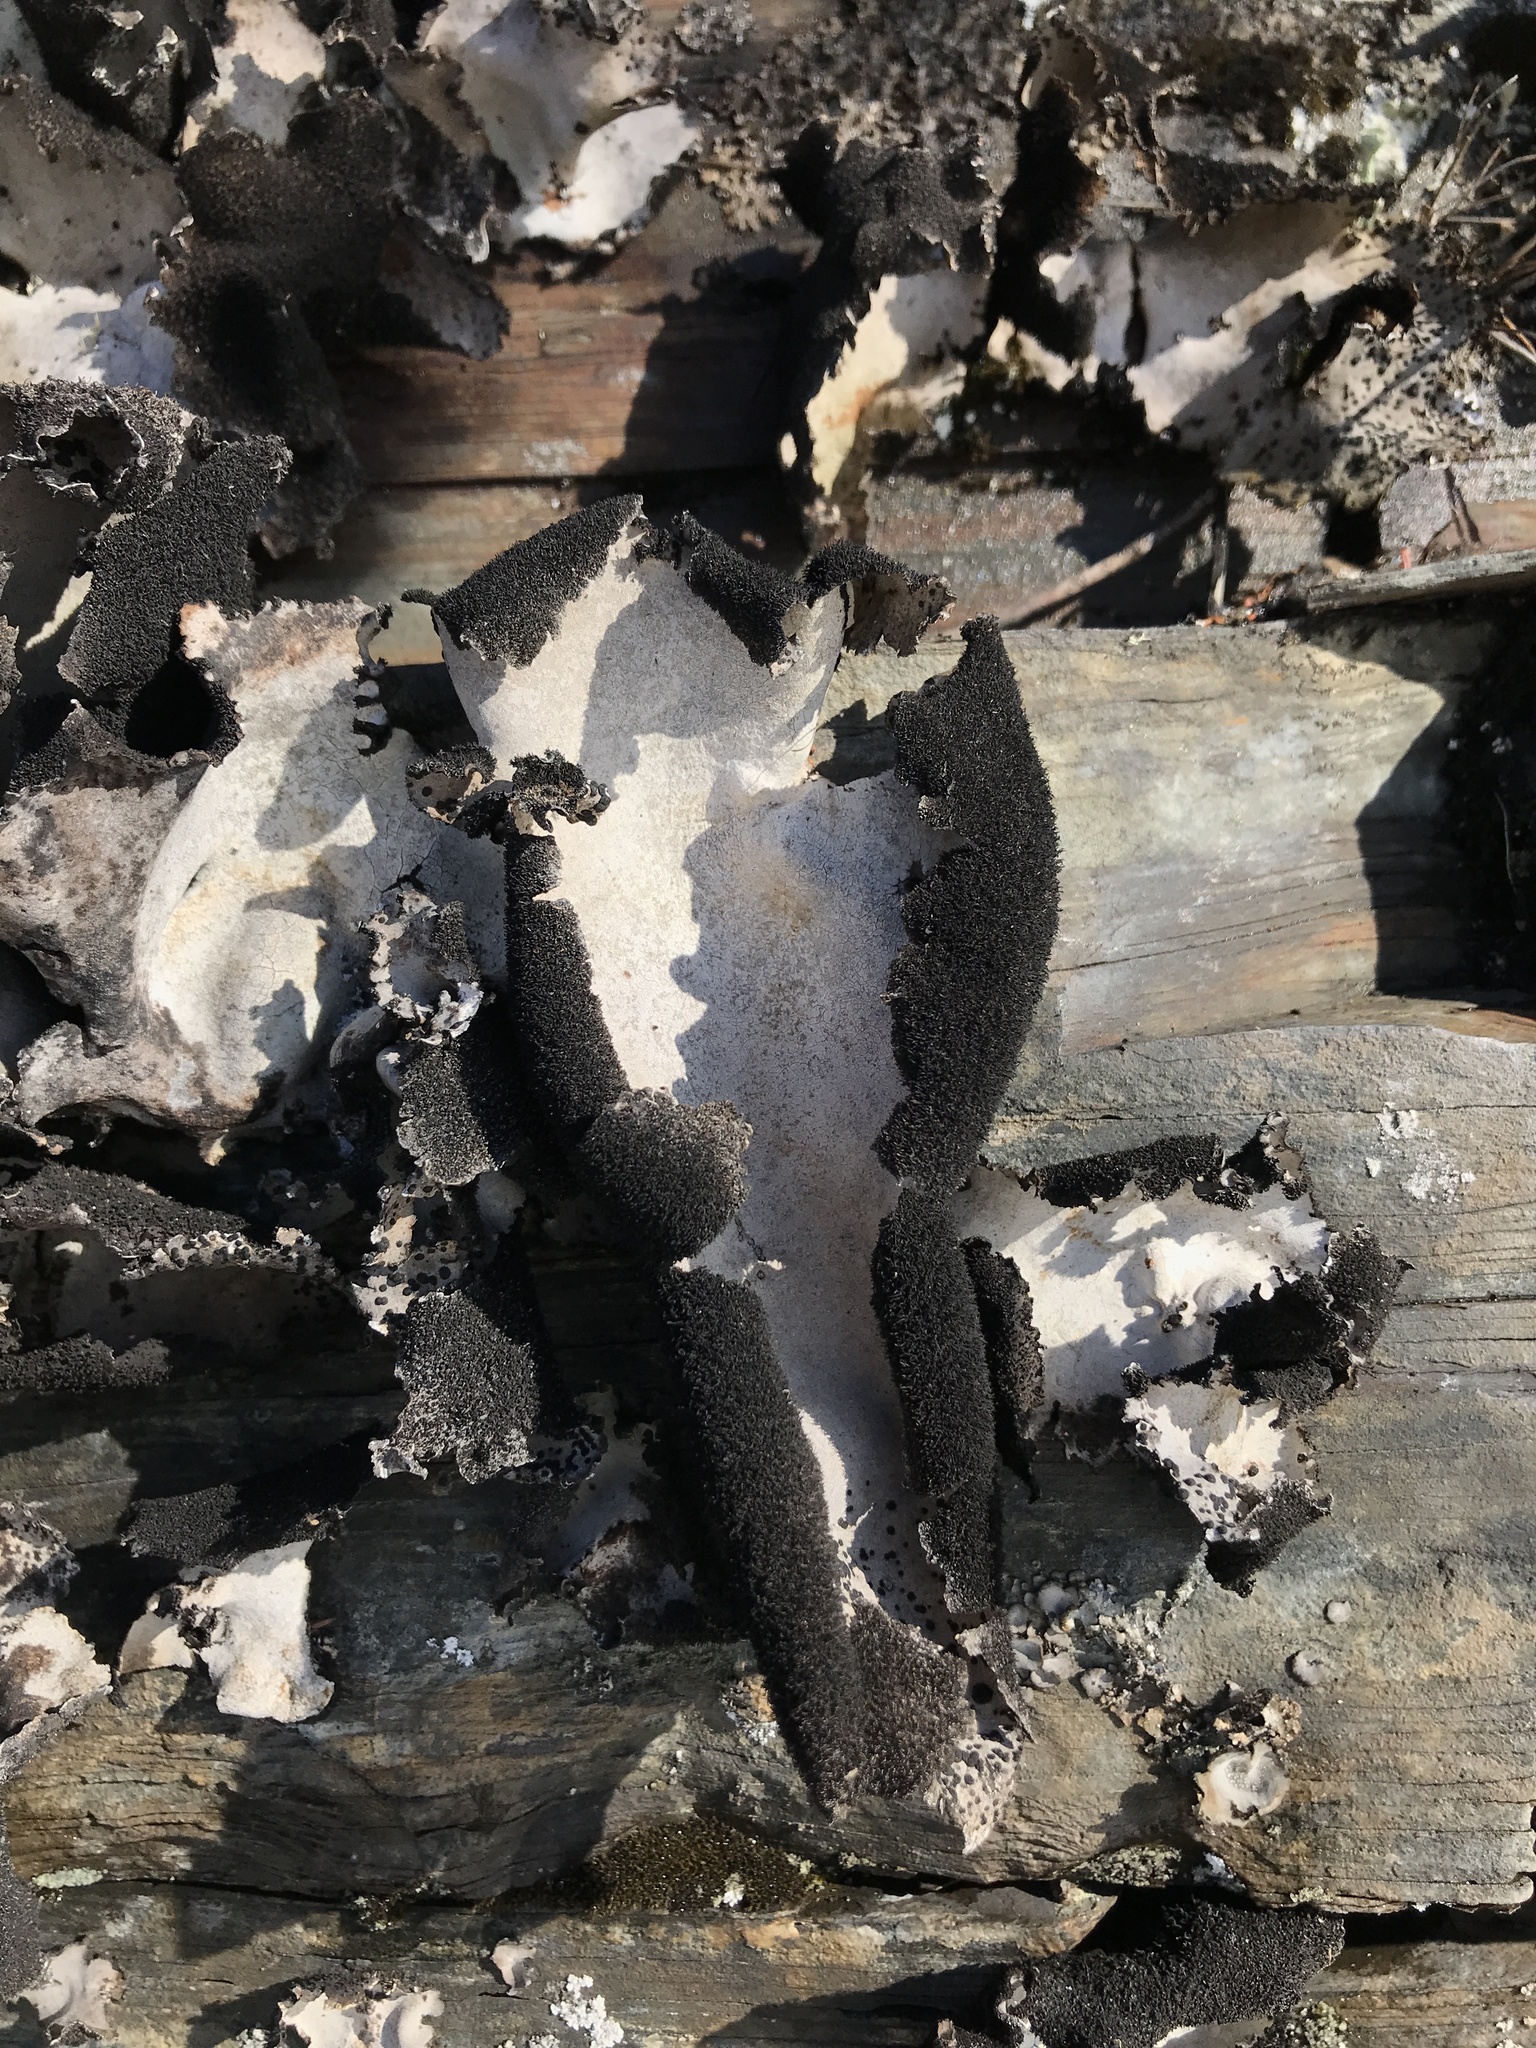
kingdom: Fungi
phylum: Ascomycota
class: Lecanoromycetes
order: Umbilicariales
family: Umbilicariaceae
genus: Umbilicaria
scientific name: Umbilicaria americana
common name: Frosted rock tripe
